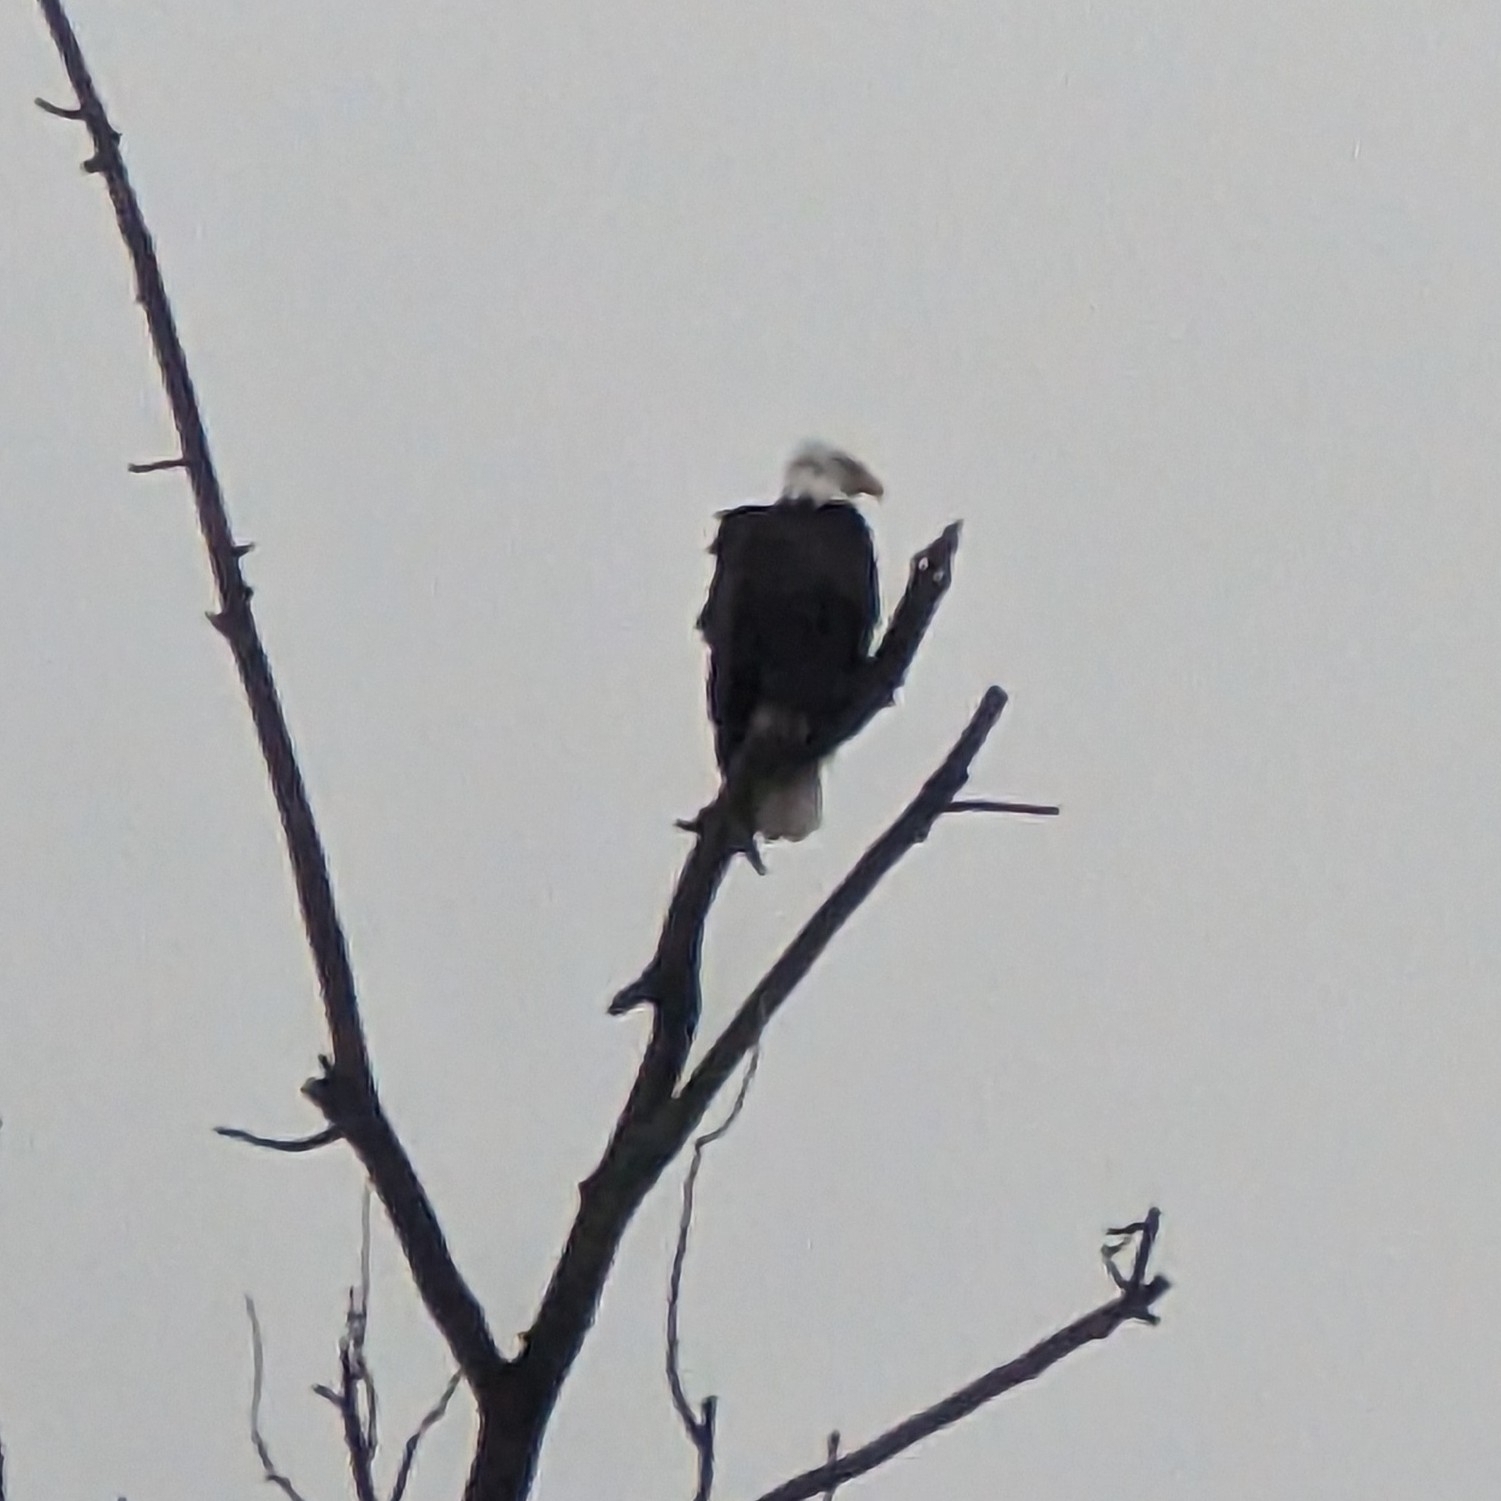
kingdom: Animalia
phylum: Chordata
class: Aves
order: Accipitriformes
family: Accipitridae
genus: Haliaeetus
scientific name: Haliaeetus leucocephalus
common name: Bald eagle
